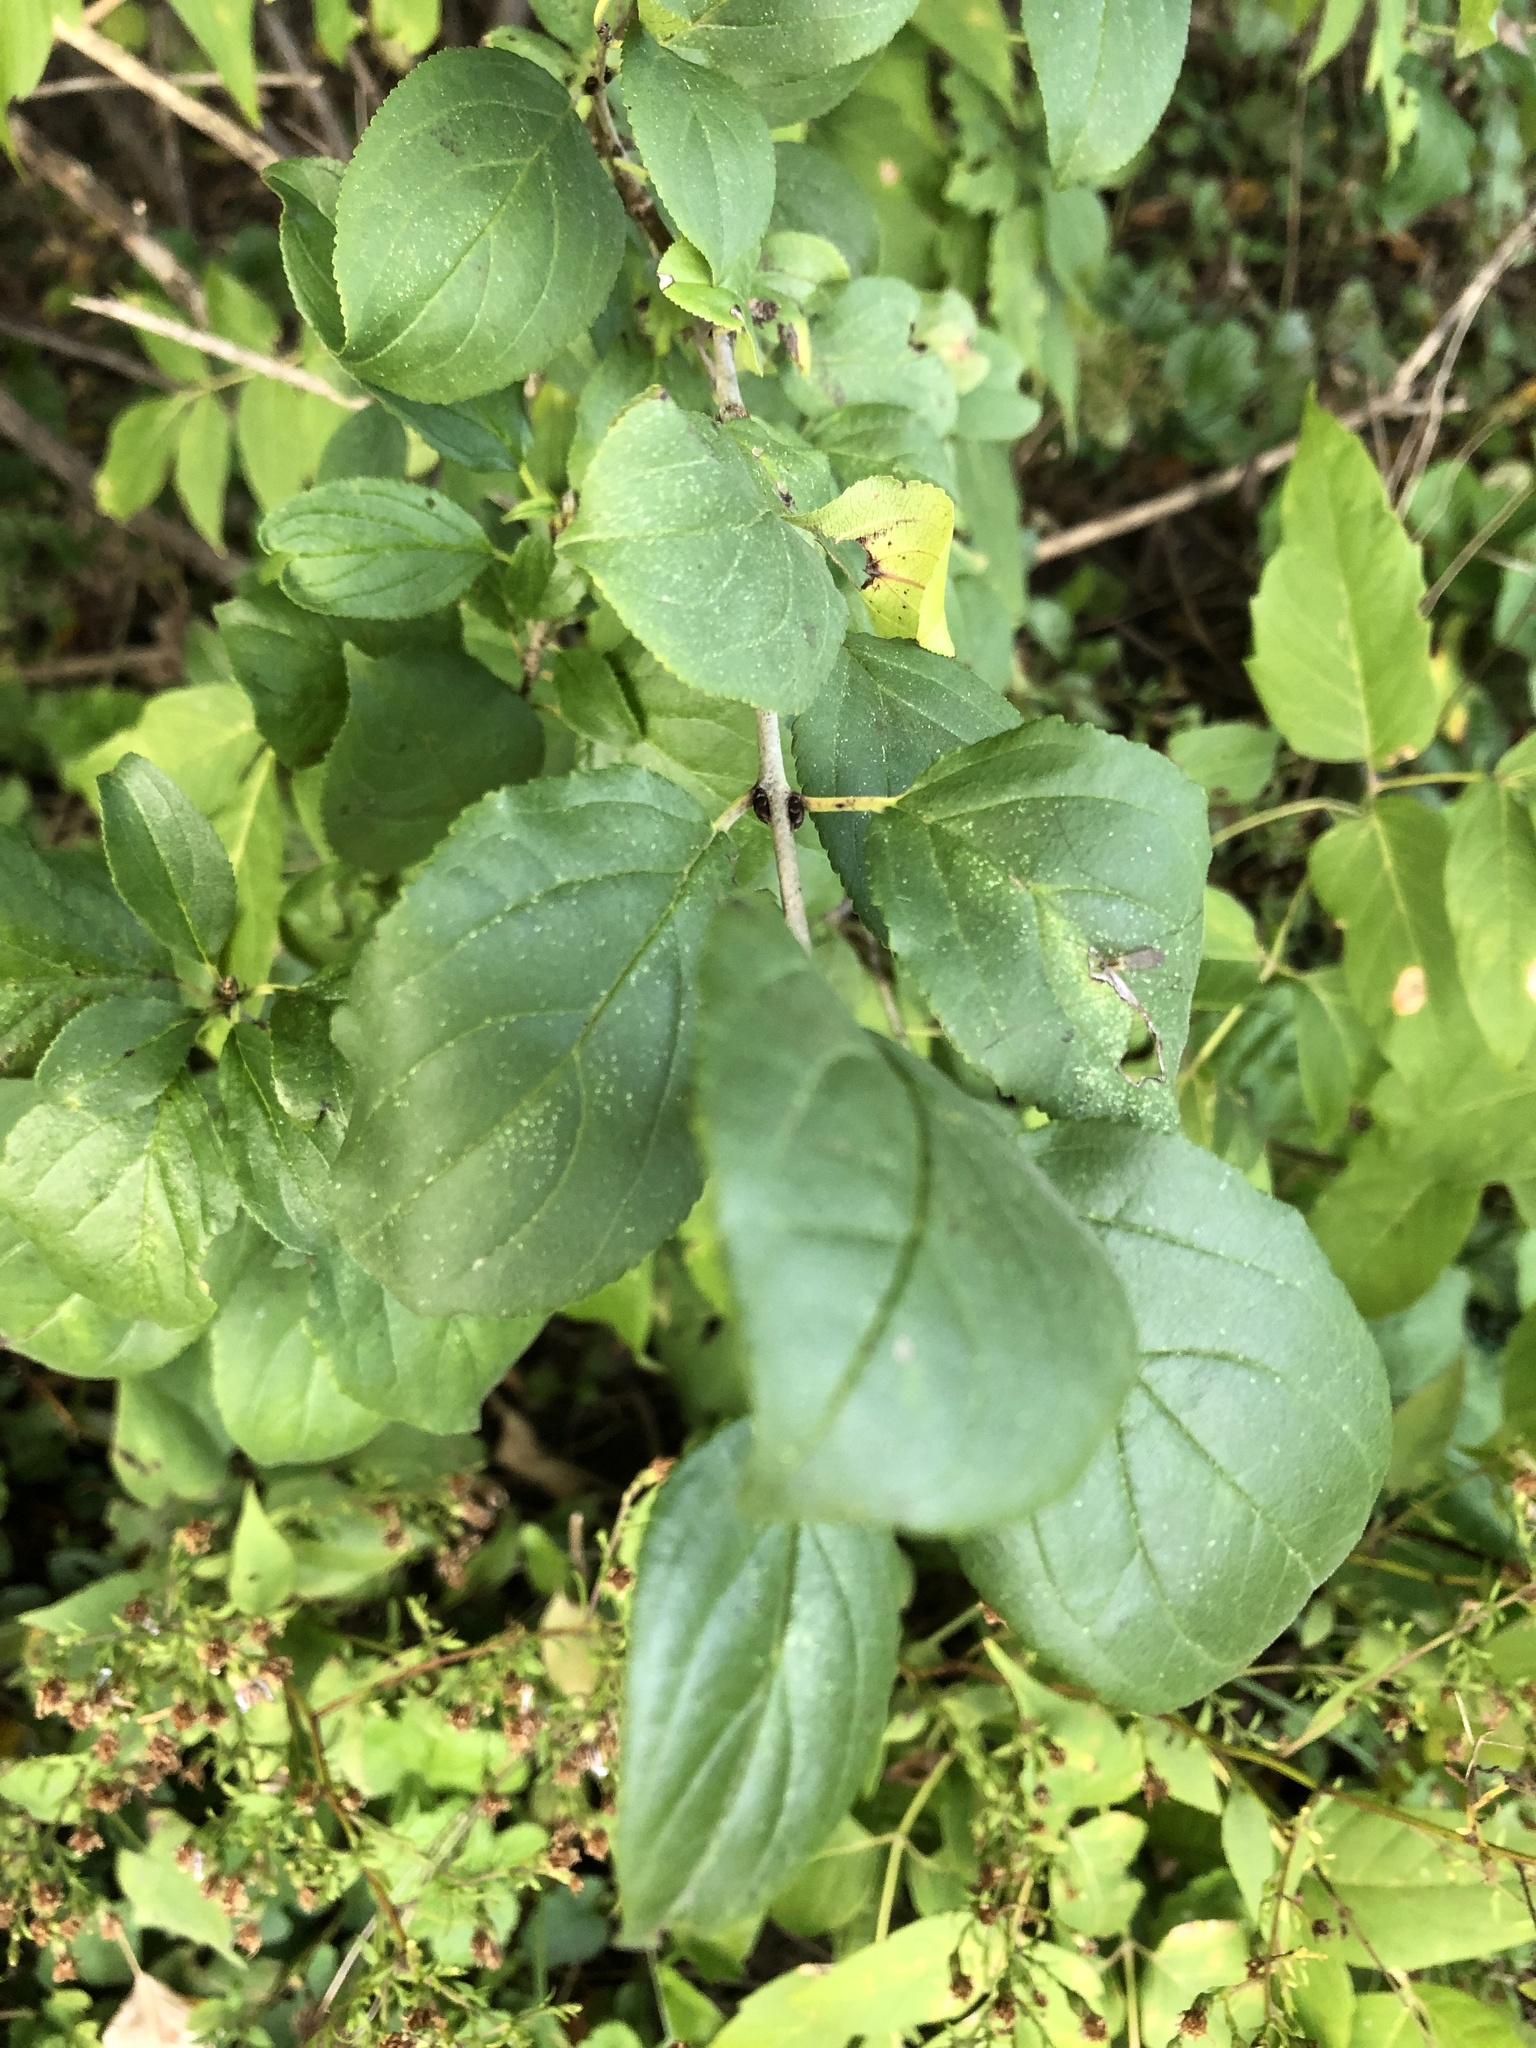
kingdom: Plantae
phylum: Tracheophyta
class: Magnoliopsida
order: Rosales
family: Rhamnaceae
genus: Rhamnus
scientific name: Rhamnus cathartica
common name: Common buckthorn
